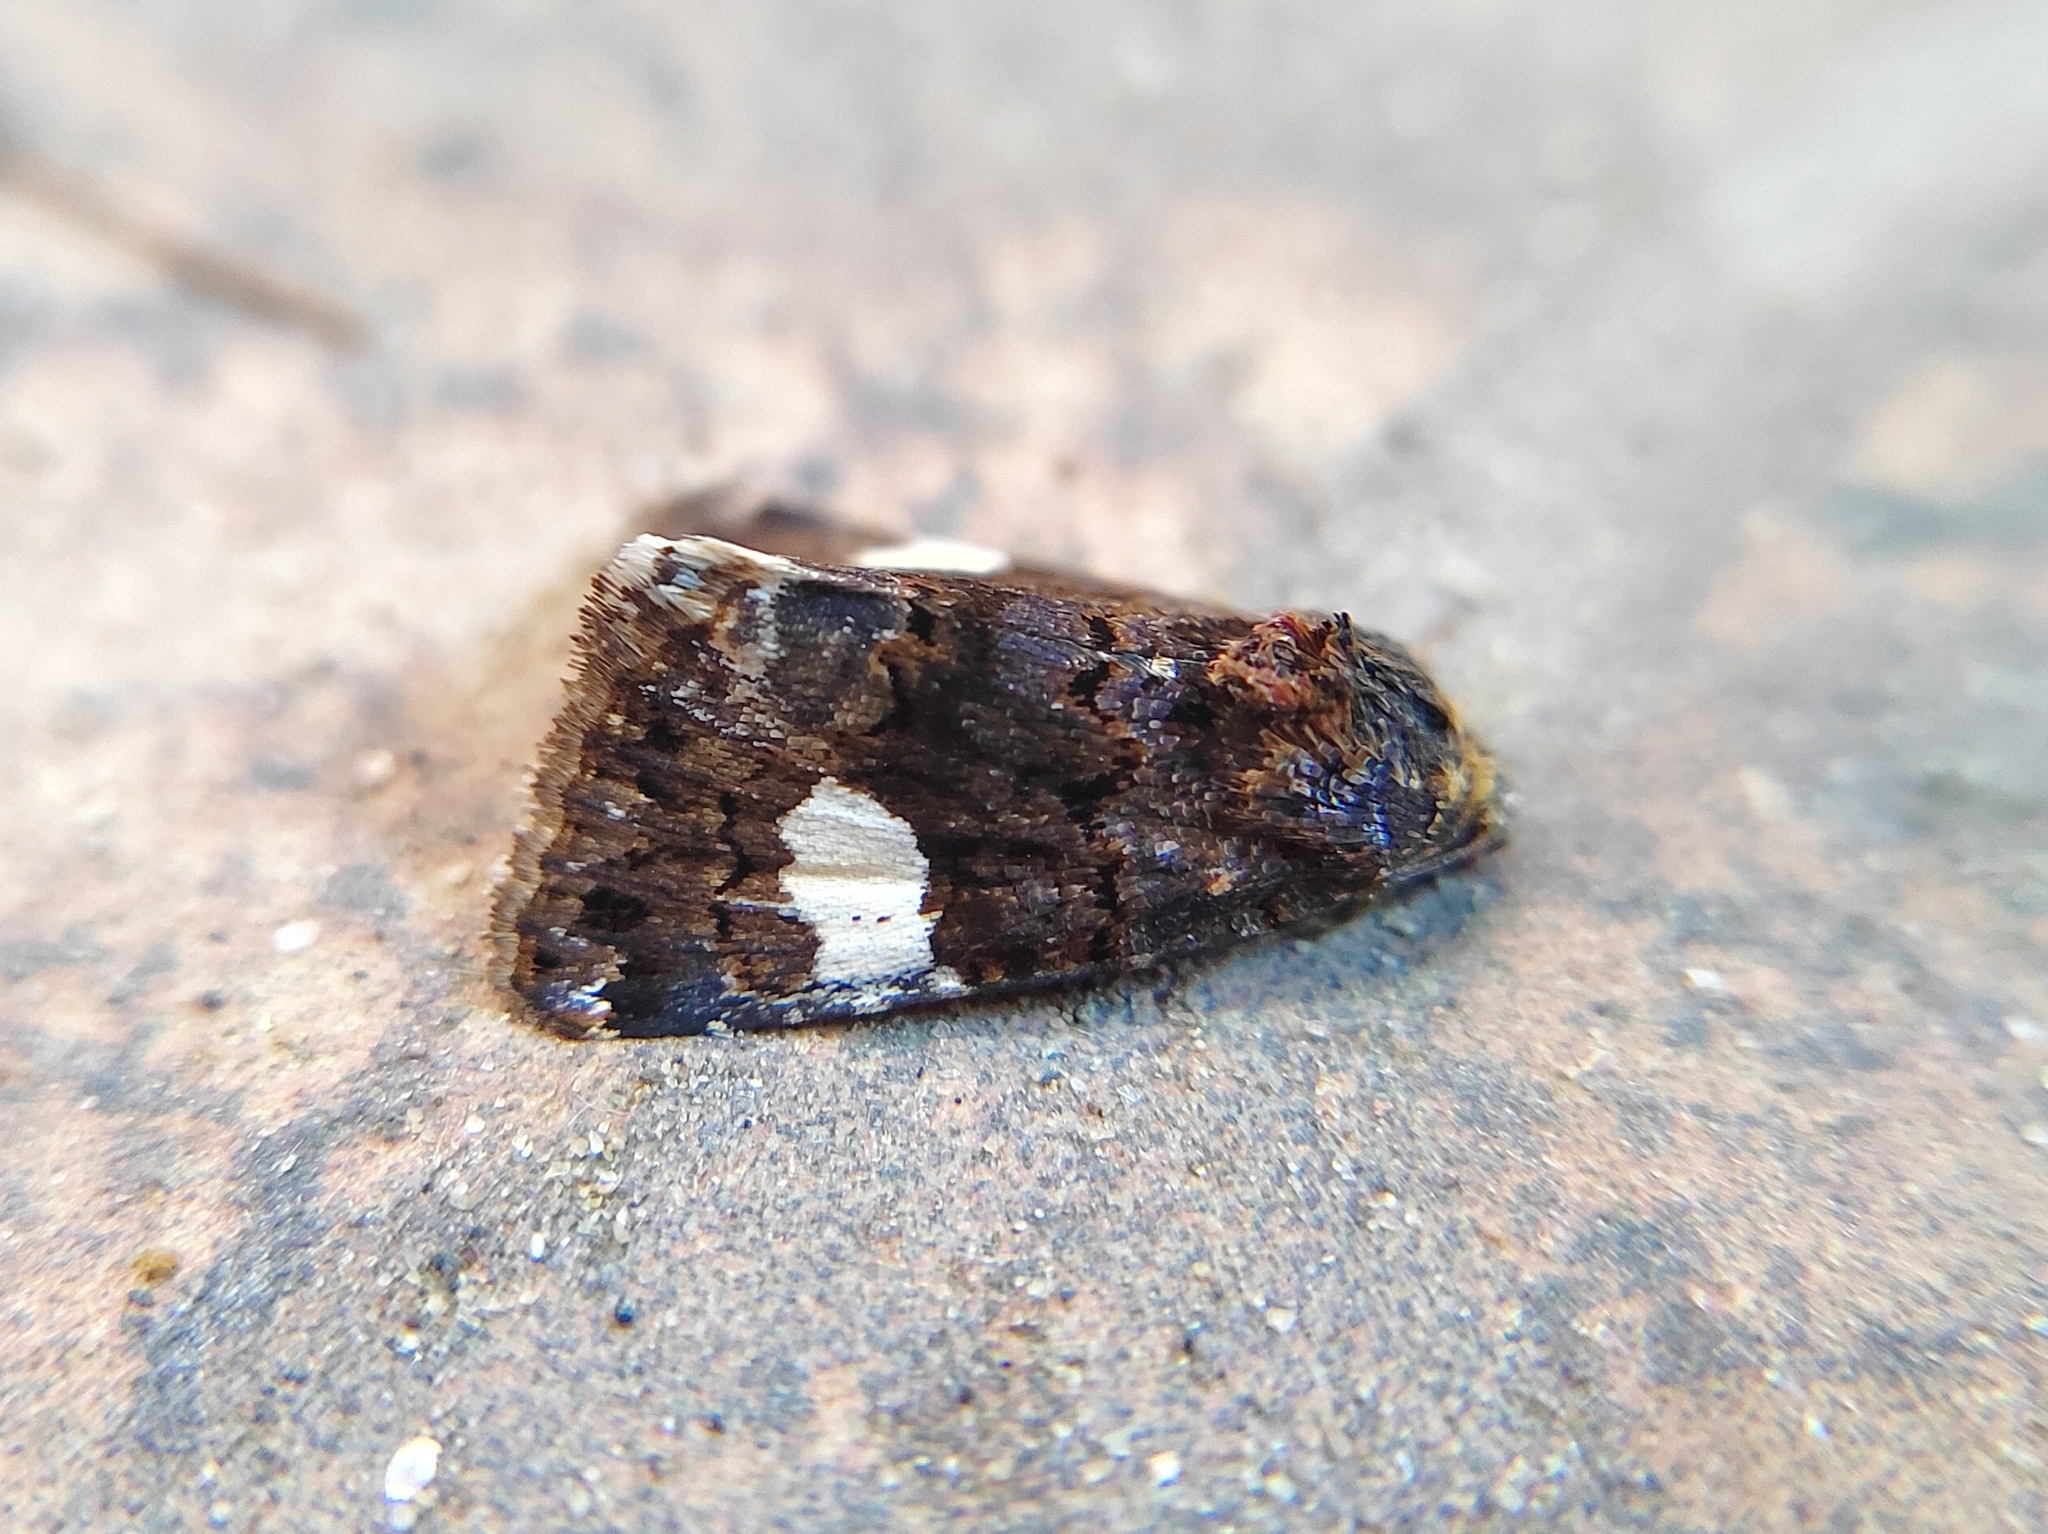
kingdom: Animalia
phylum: Arthropoda
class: Insecta
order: Lepidoptera
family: Erebidae
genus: Tyta
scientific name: Tyta luctuosa
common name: Four-spotted
